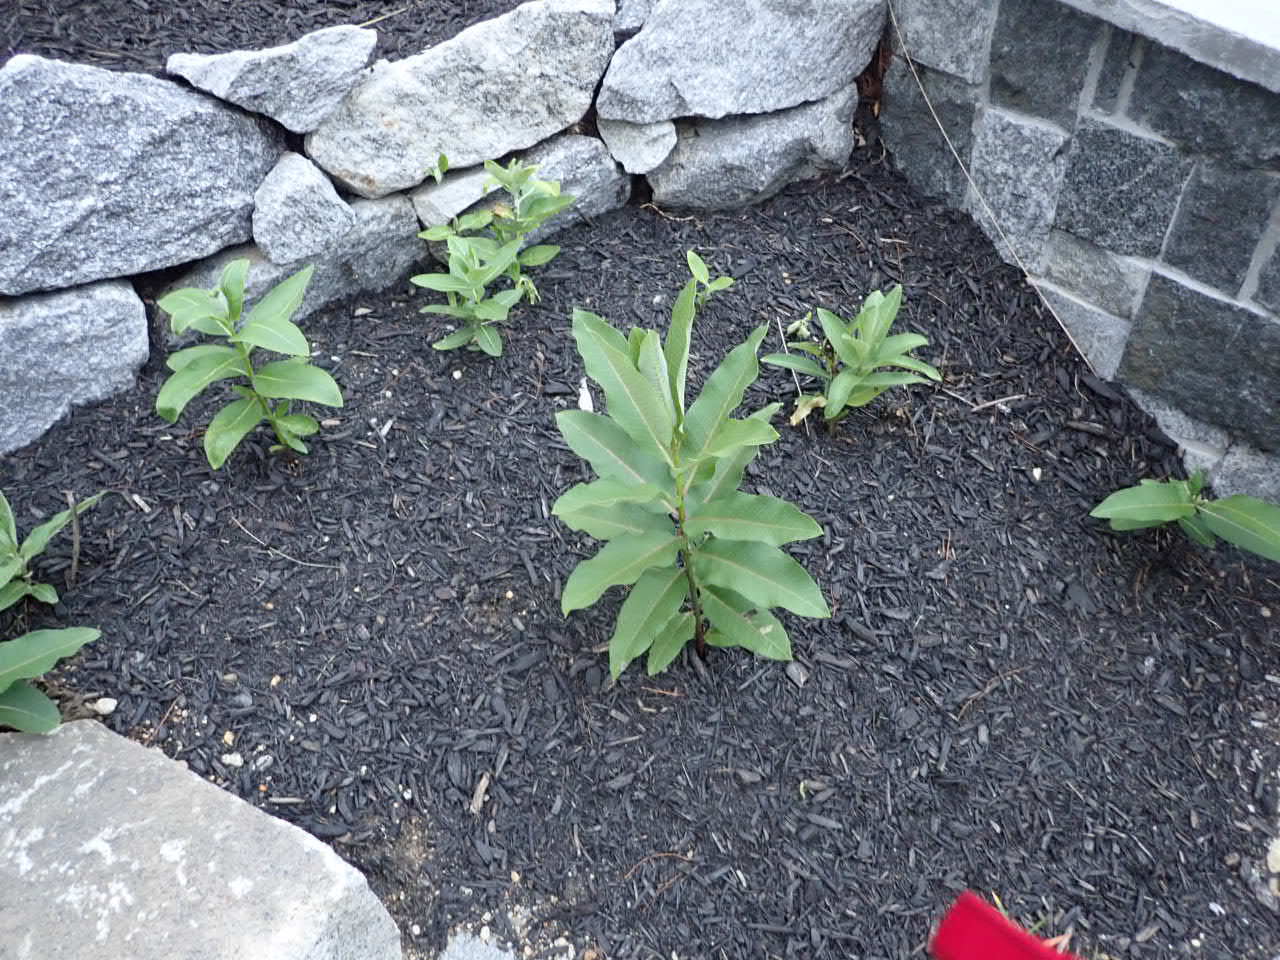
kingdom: Plantae
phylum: Tracheophyta
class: Magnoliopsida
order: Gentianales
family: Apocynaceae
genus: Asclepias
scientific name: Asclepias syriaca
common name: Common milkweed
